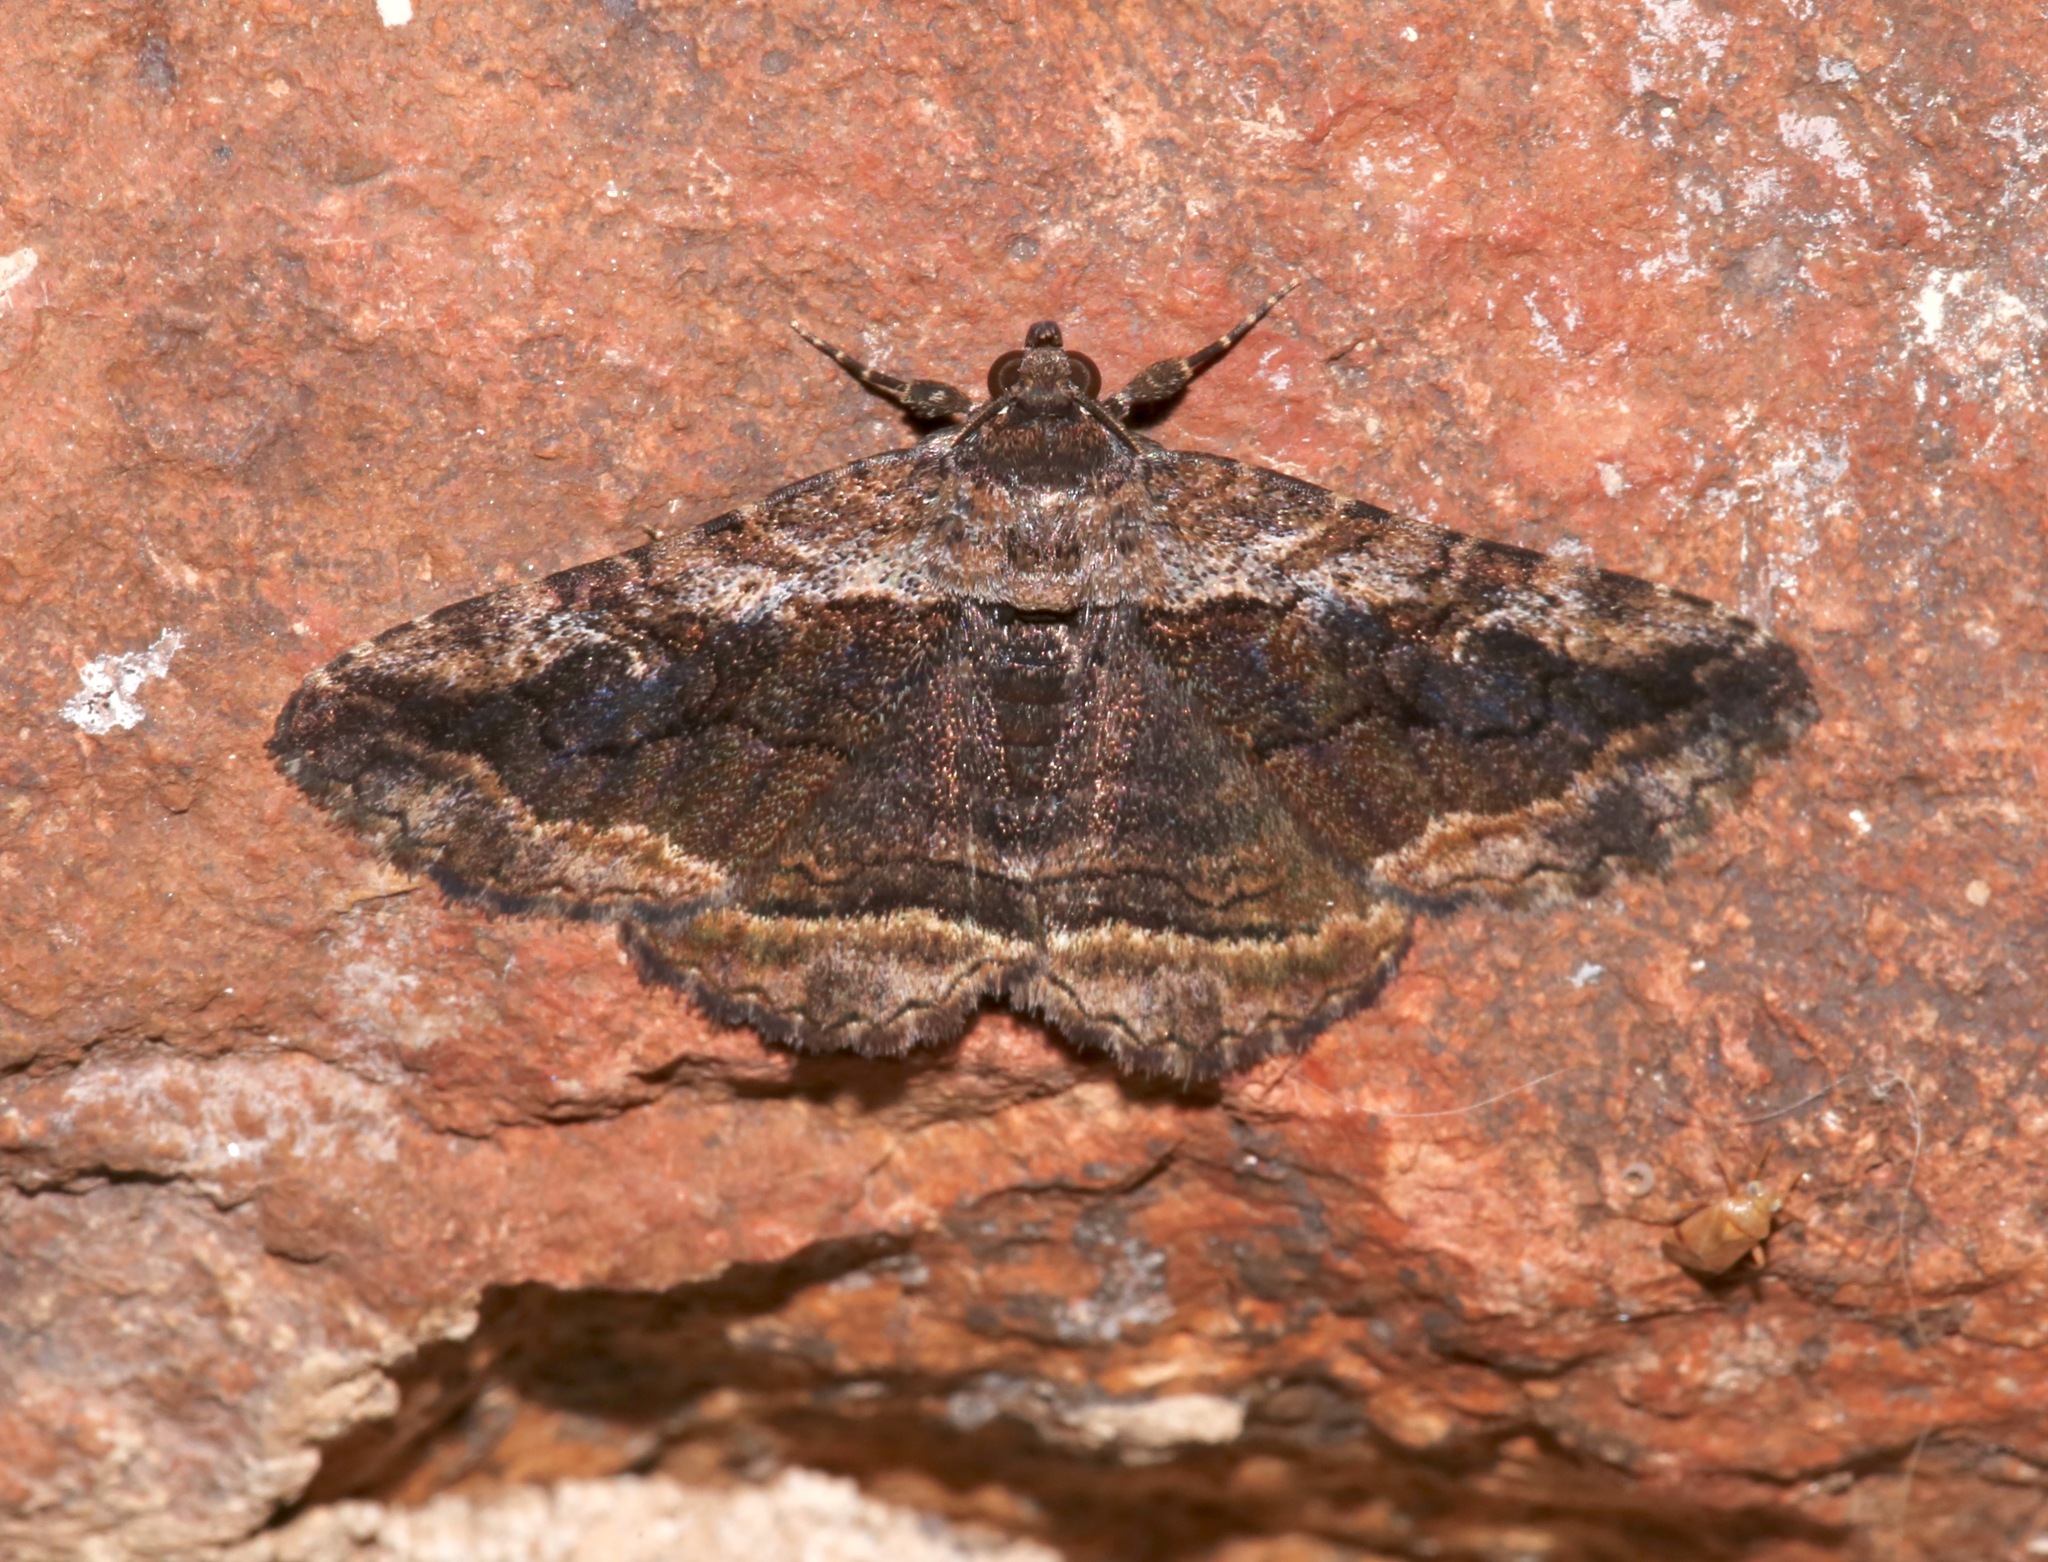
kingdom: Animalia
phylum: Arthropoda
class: Insecta
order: Lepidoptera
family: Erebidae
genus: Zaleops
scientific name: Zaleops umbrina
